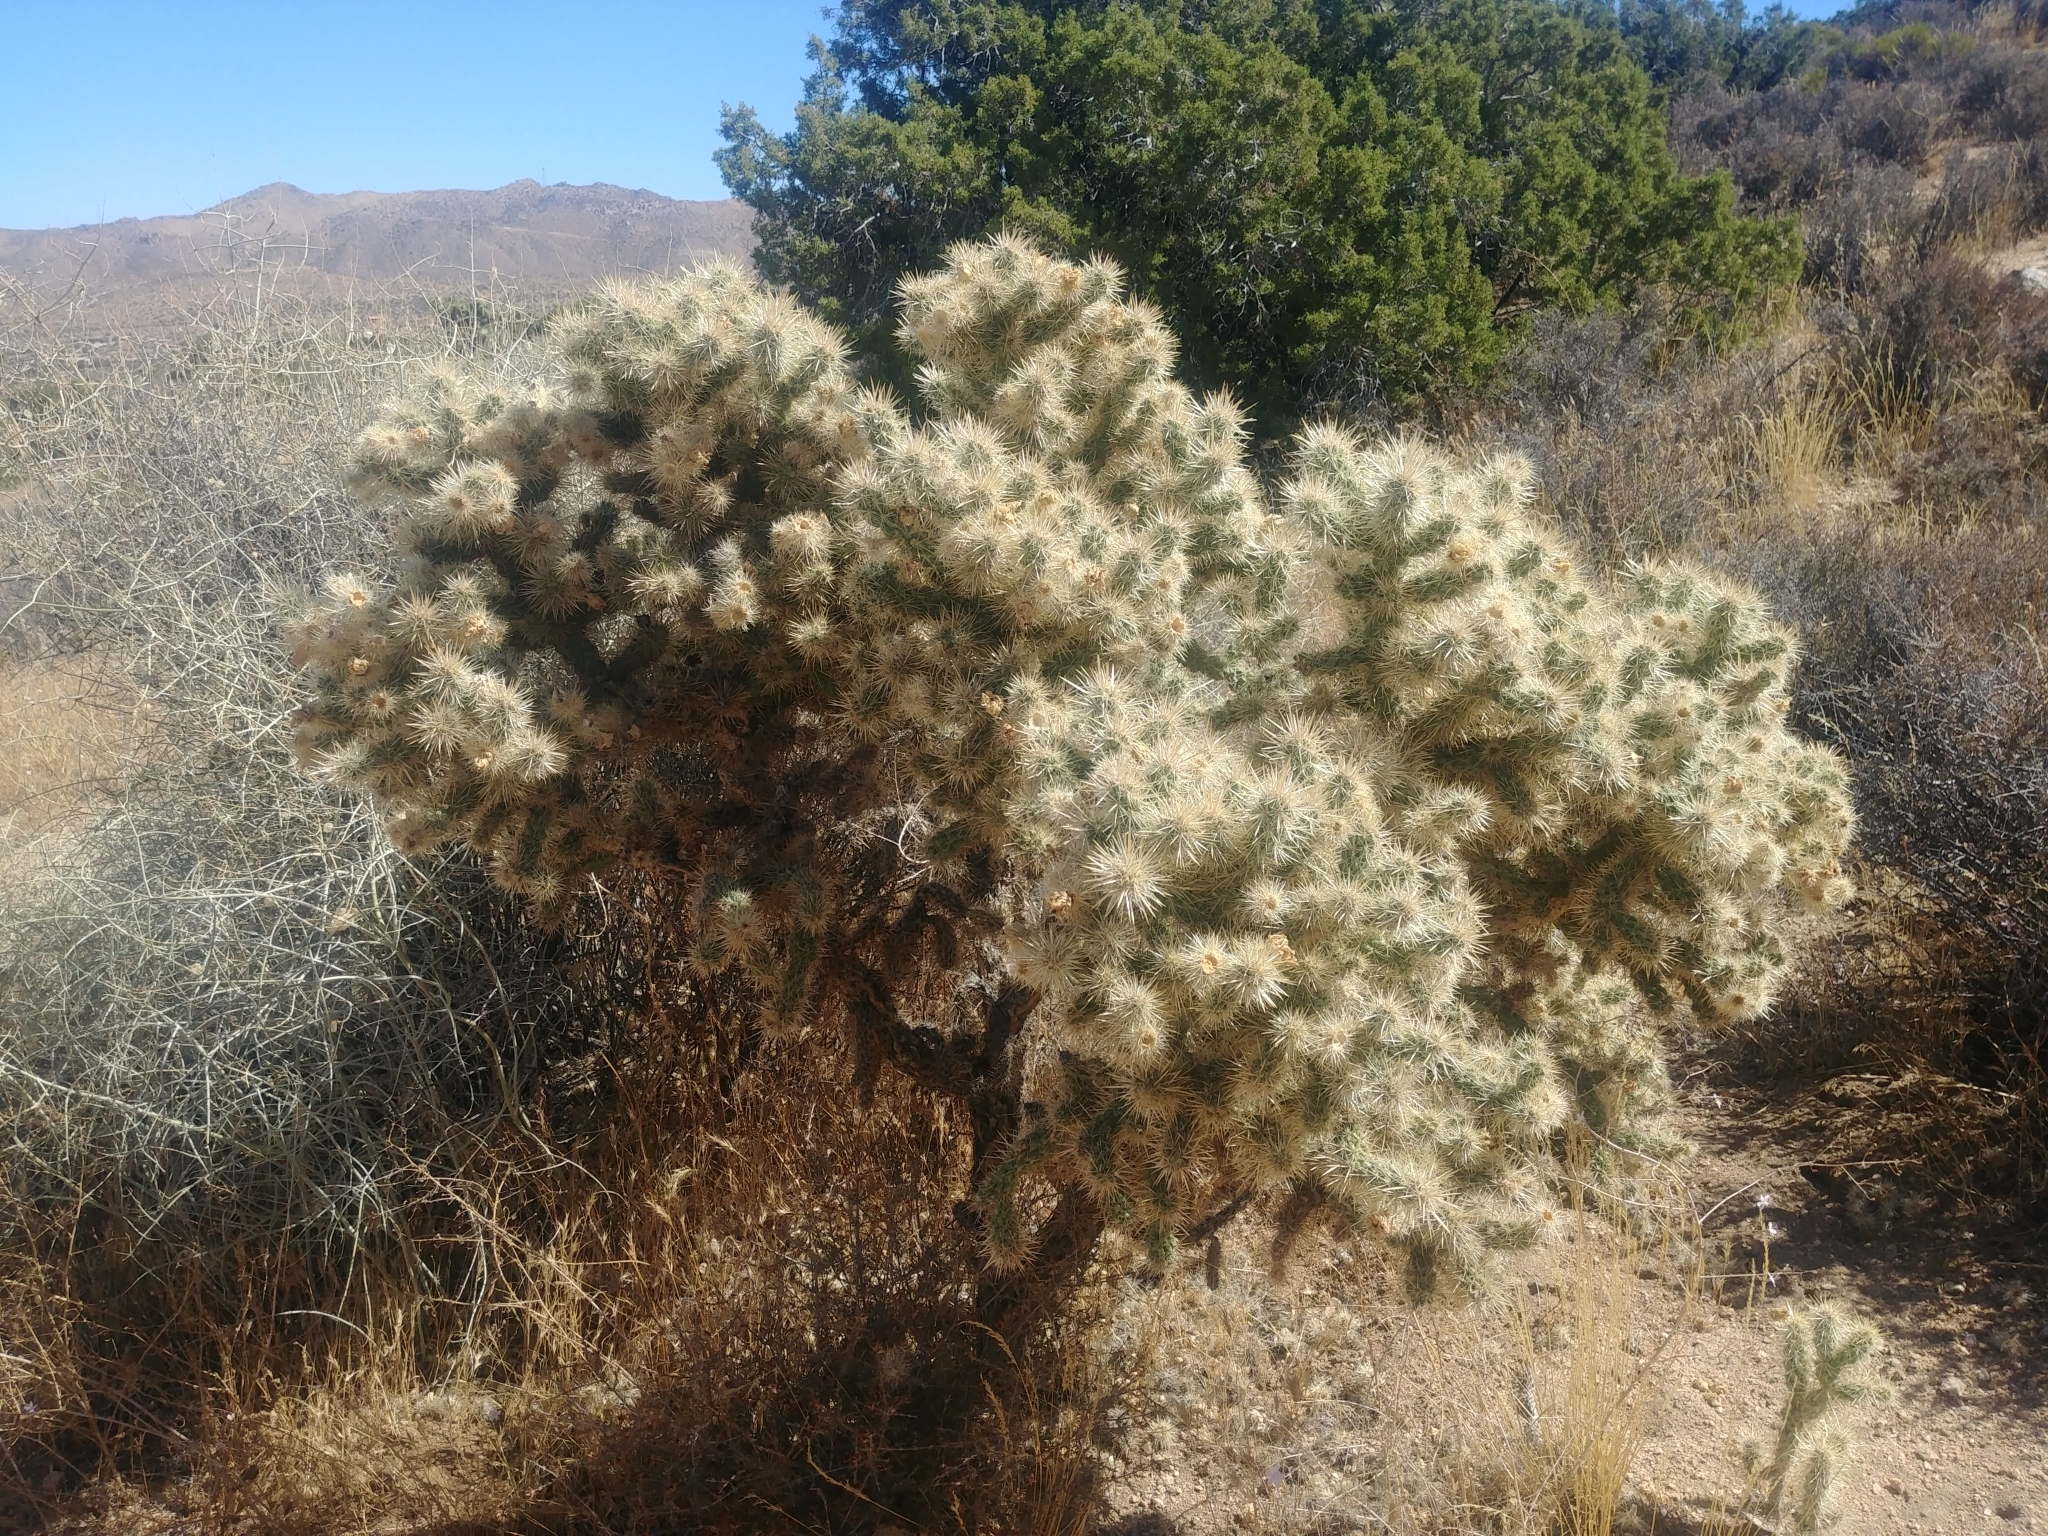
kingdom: Plantae
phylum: Tracheophyta
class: Magnoliopsida
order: Caryophyllales
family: Cactaceae
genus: Cylindropuntia
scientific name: Cylindropuntia echinocarpa
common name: Ground cholla
